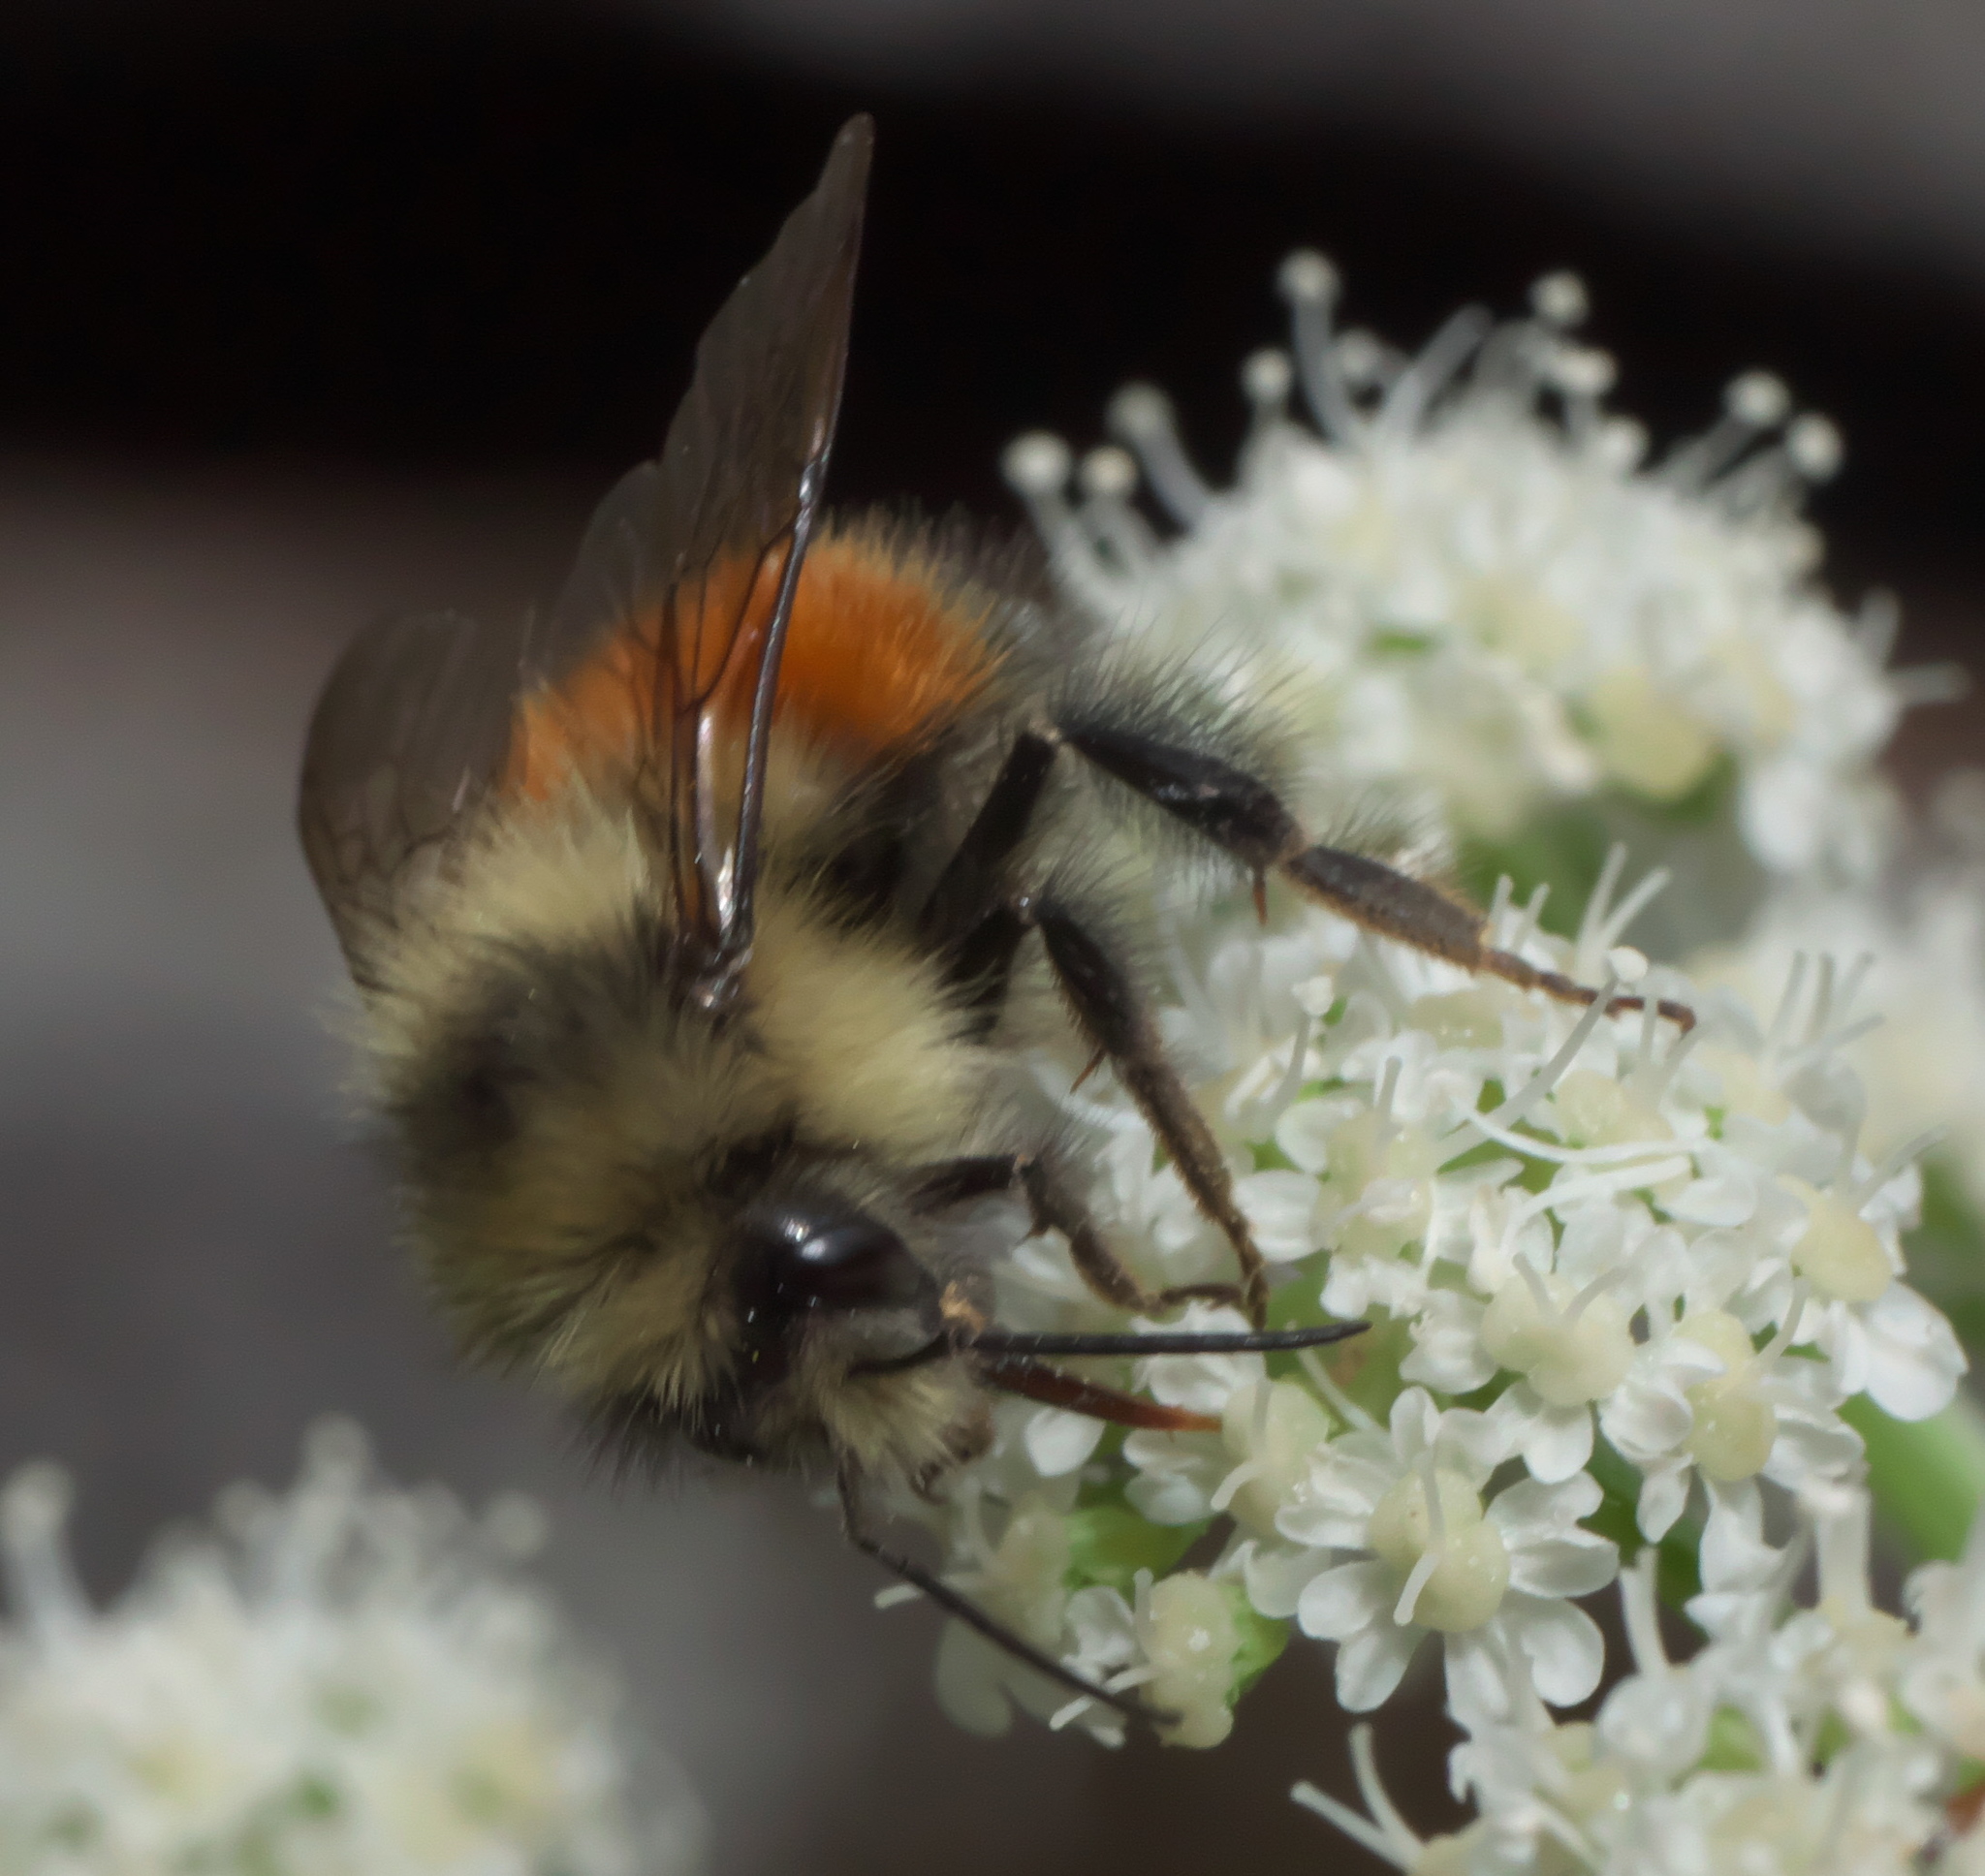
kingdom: Animalia
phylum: Arthropoda
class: Insecta
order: Hymenoptera
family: Apidae
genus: Bombus
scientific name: Bombus melanopygus
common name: Black tail bumble bee
